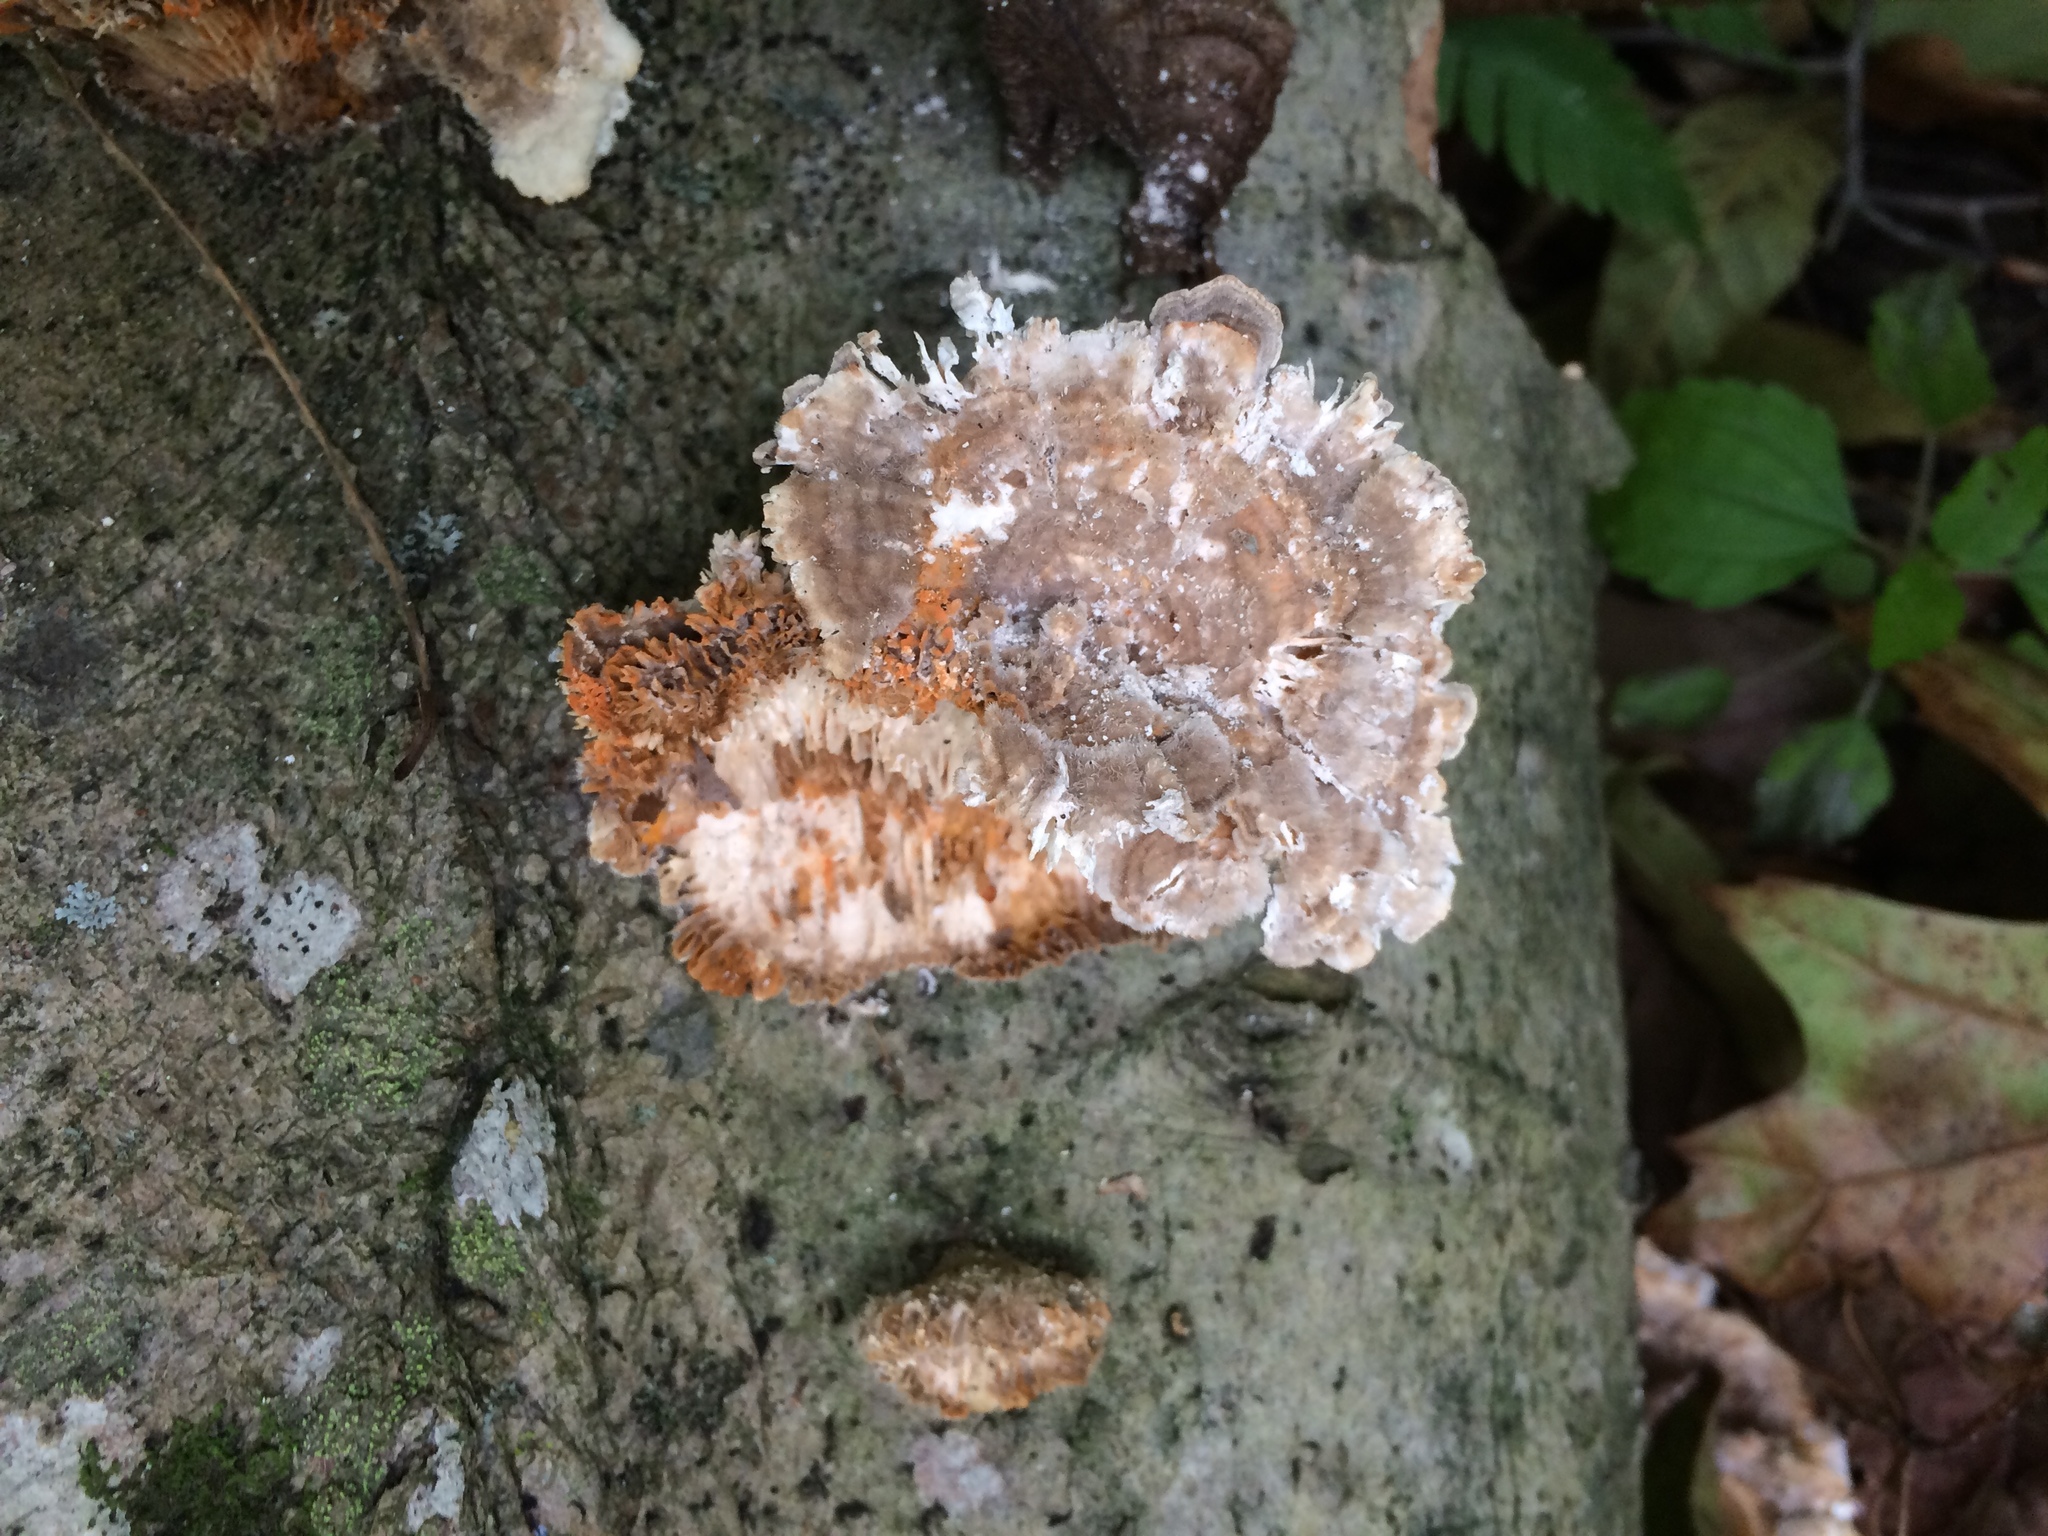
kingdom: Fungi
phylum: Basidiomycota
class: Agaricomycetes
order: Polyporales
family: Polyporaceae
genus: Lenzites
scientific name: Lenzites betulinus
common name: Birch mazegill
